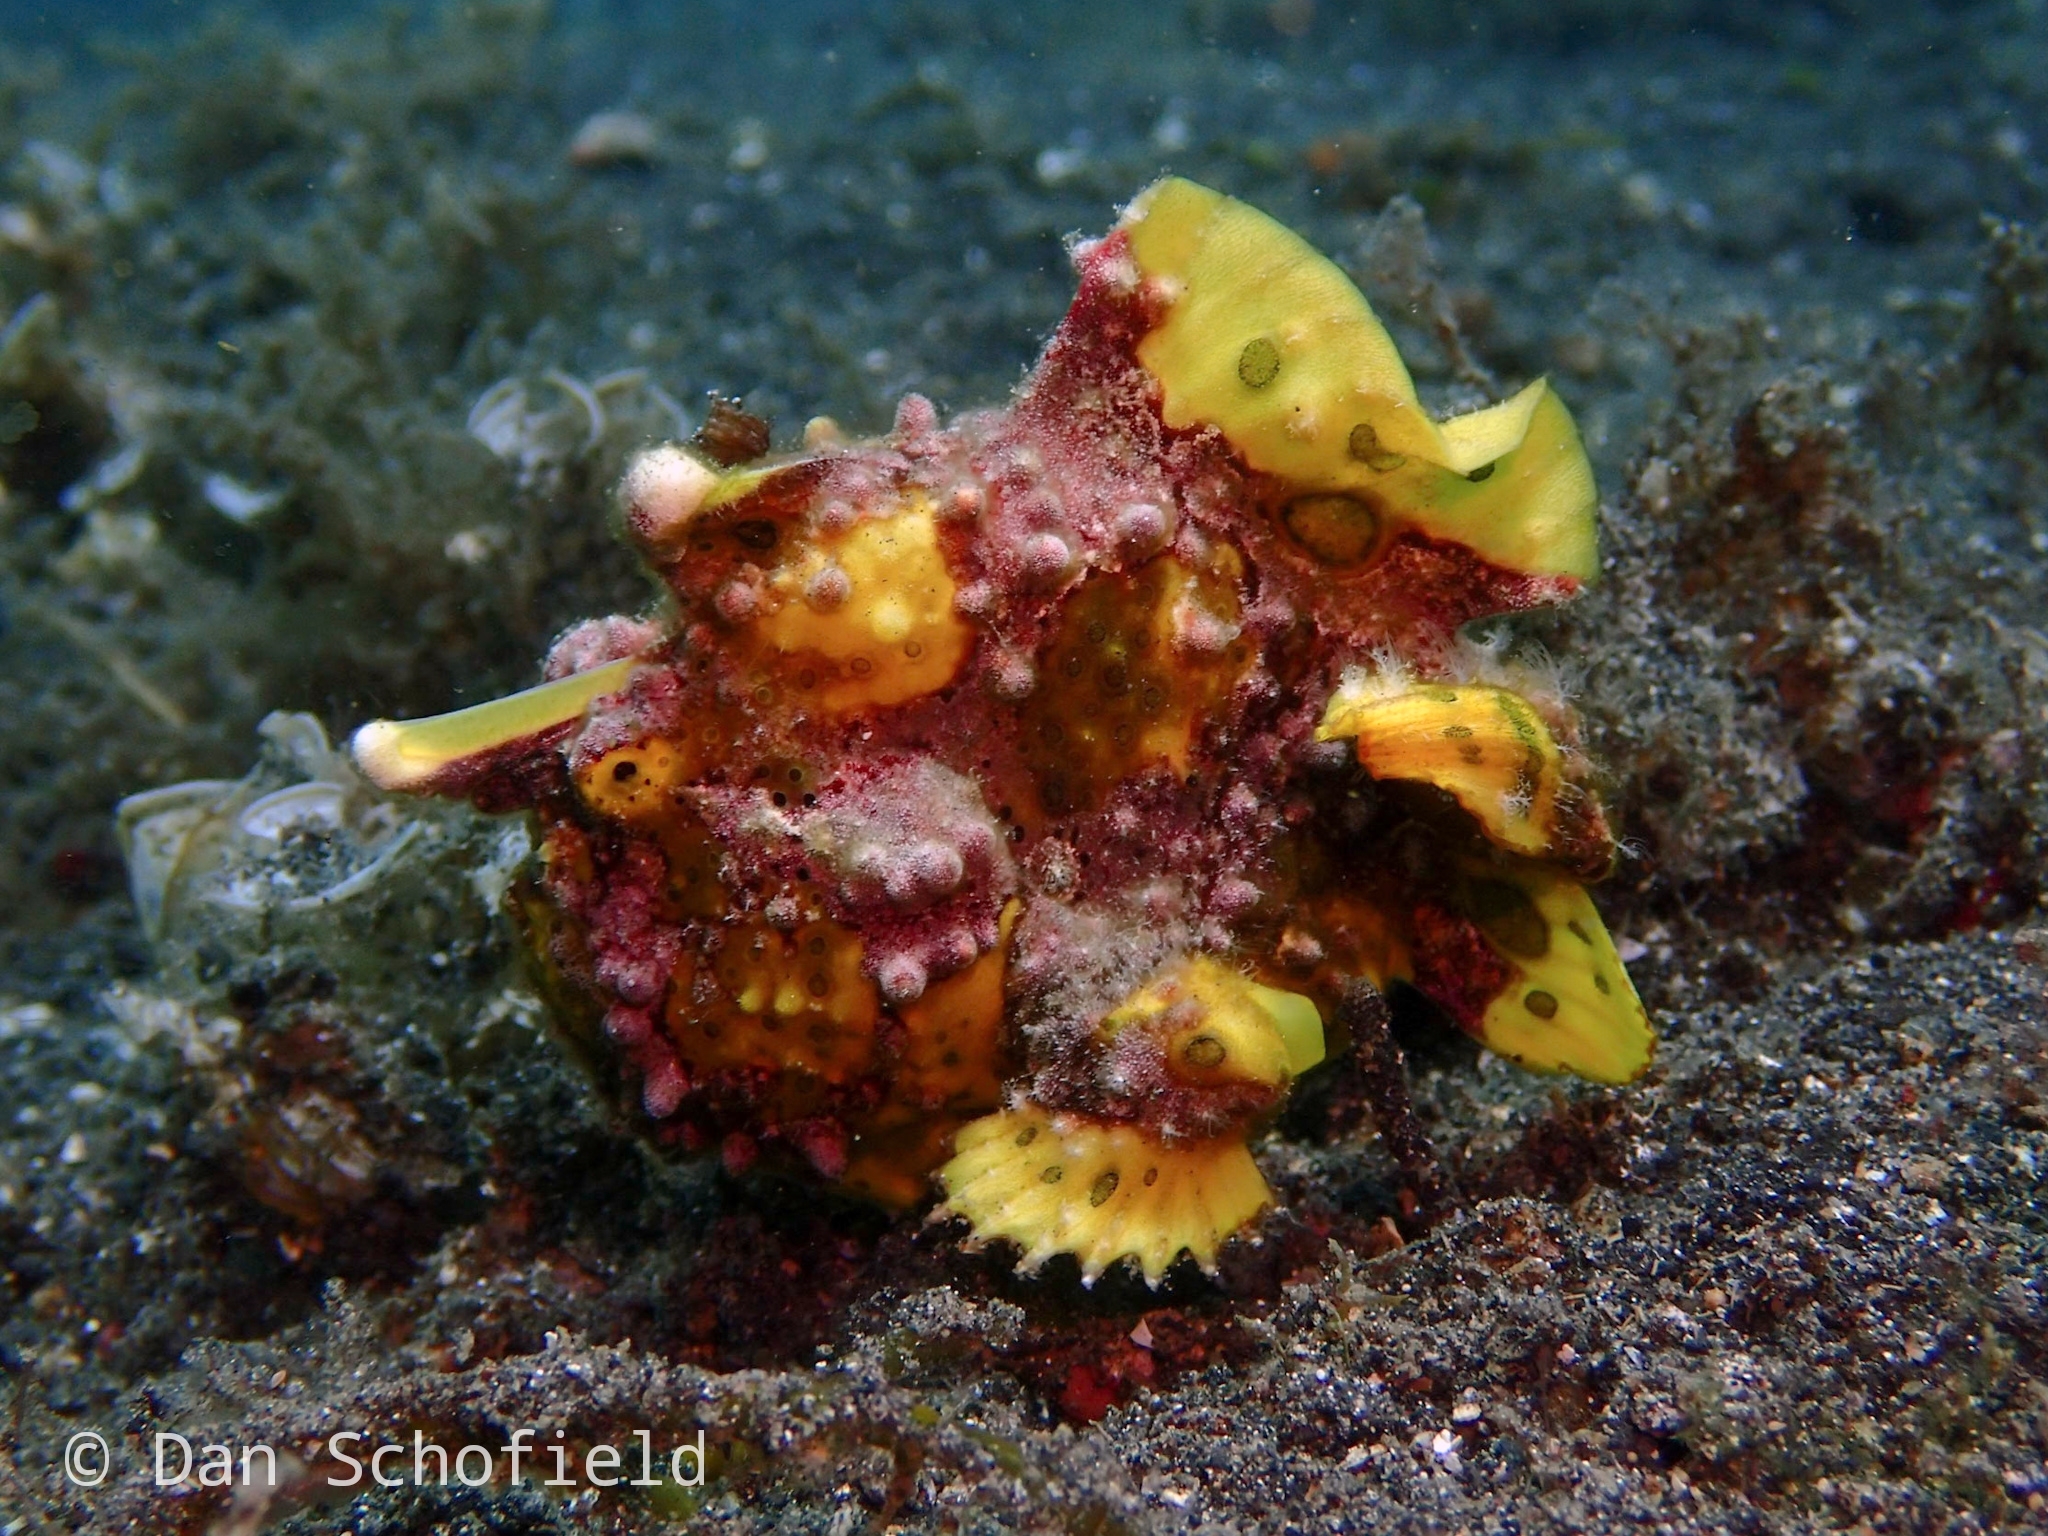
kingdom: Animalia
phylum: Chordata
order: Lophiiformes
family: Antennariidae
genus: Antennarius
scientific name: Antennarius maculatus
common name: Warty frogfish
